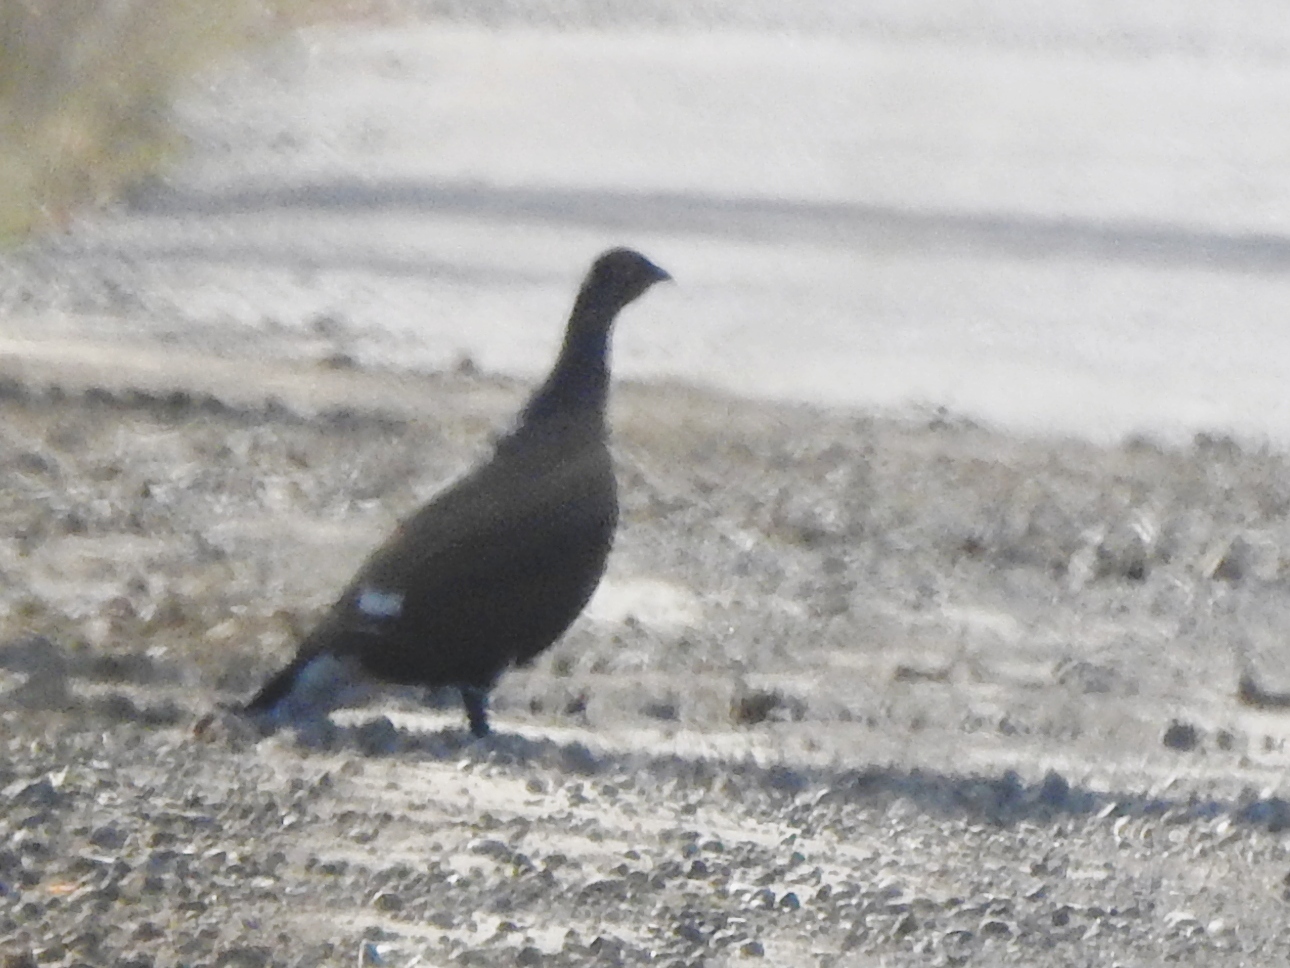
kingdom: Animalia
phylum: Chordata
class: Aves
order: Galliformes
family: Phasianidae
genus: Lyrurus
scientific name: Lyrurus tetrix
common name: Black grouse
